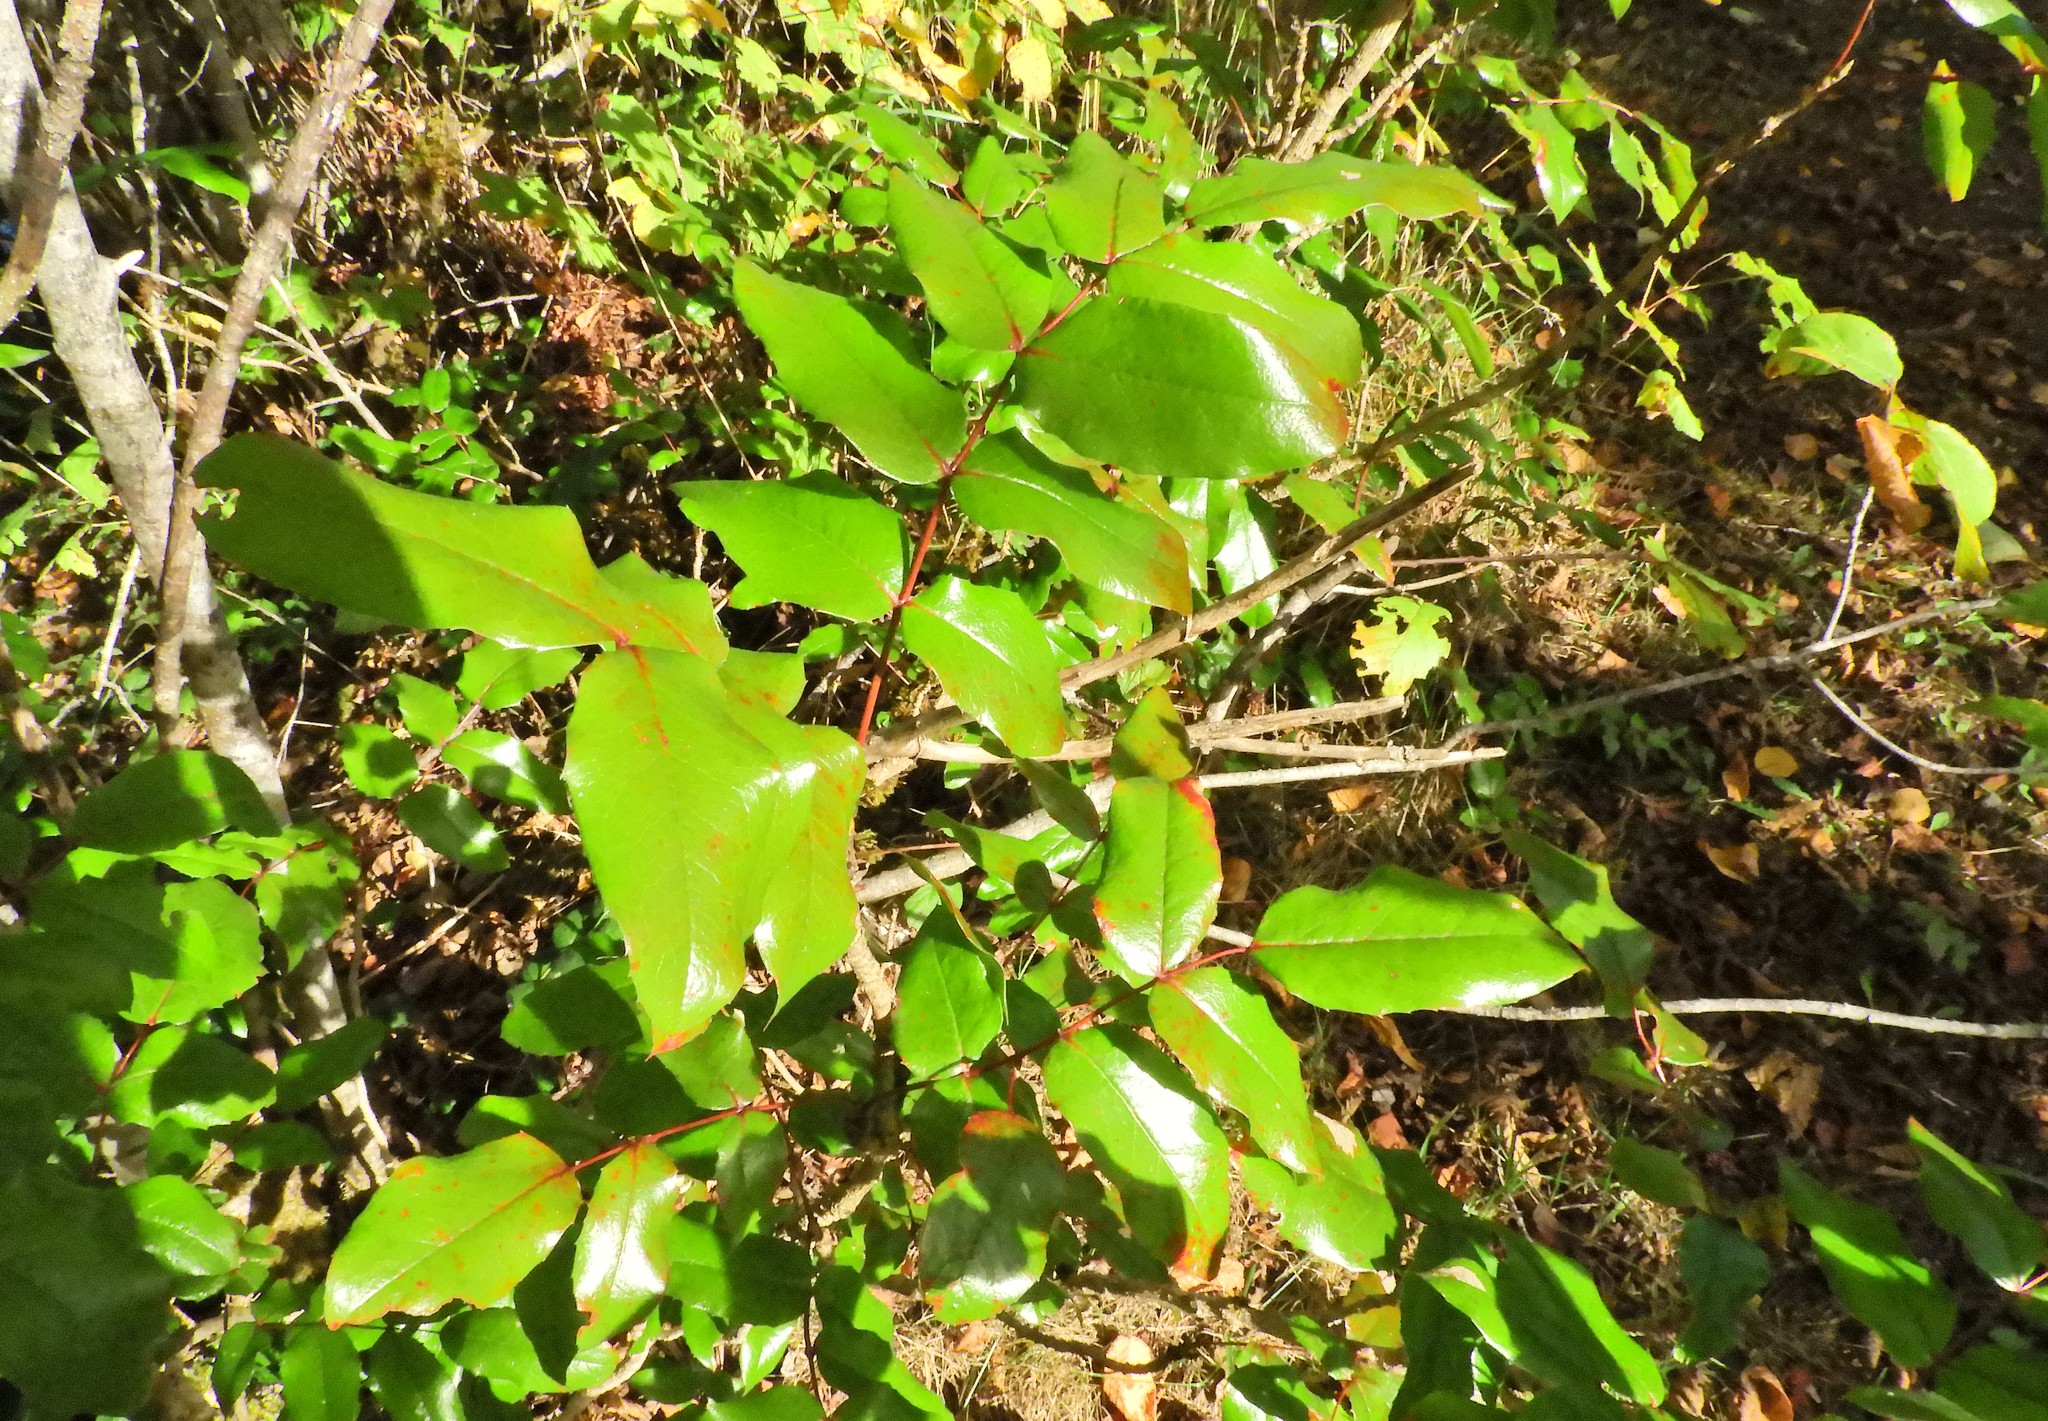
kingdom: Plantae
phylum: Tracheophyta
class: Magnoliopsida
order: Ranunculales
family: Berberidaceae
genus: Mahonia
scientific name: Mahonia aquifolium
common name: Oregon-grape
